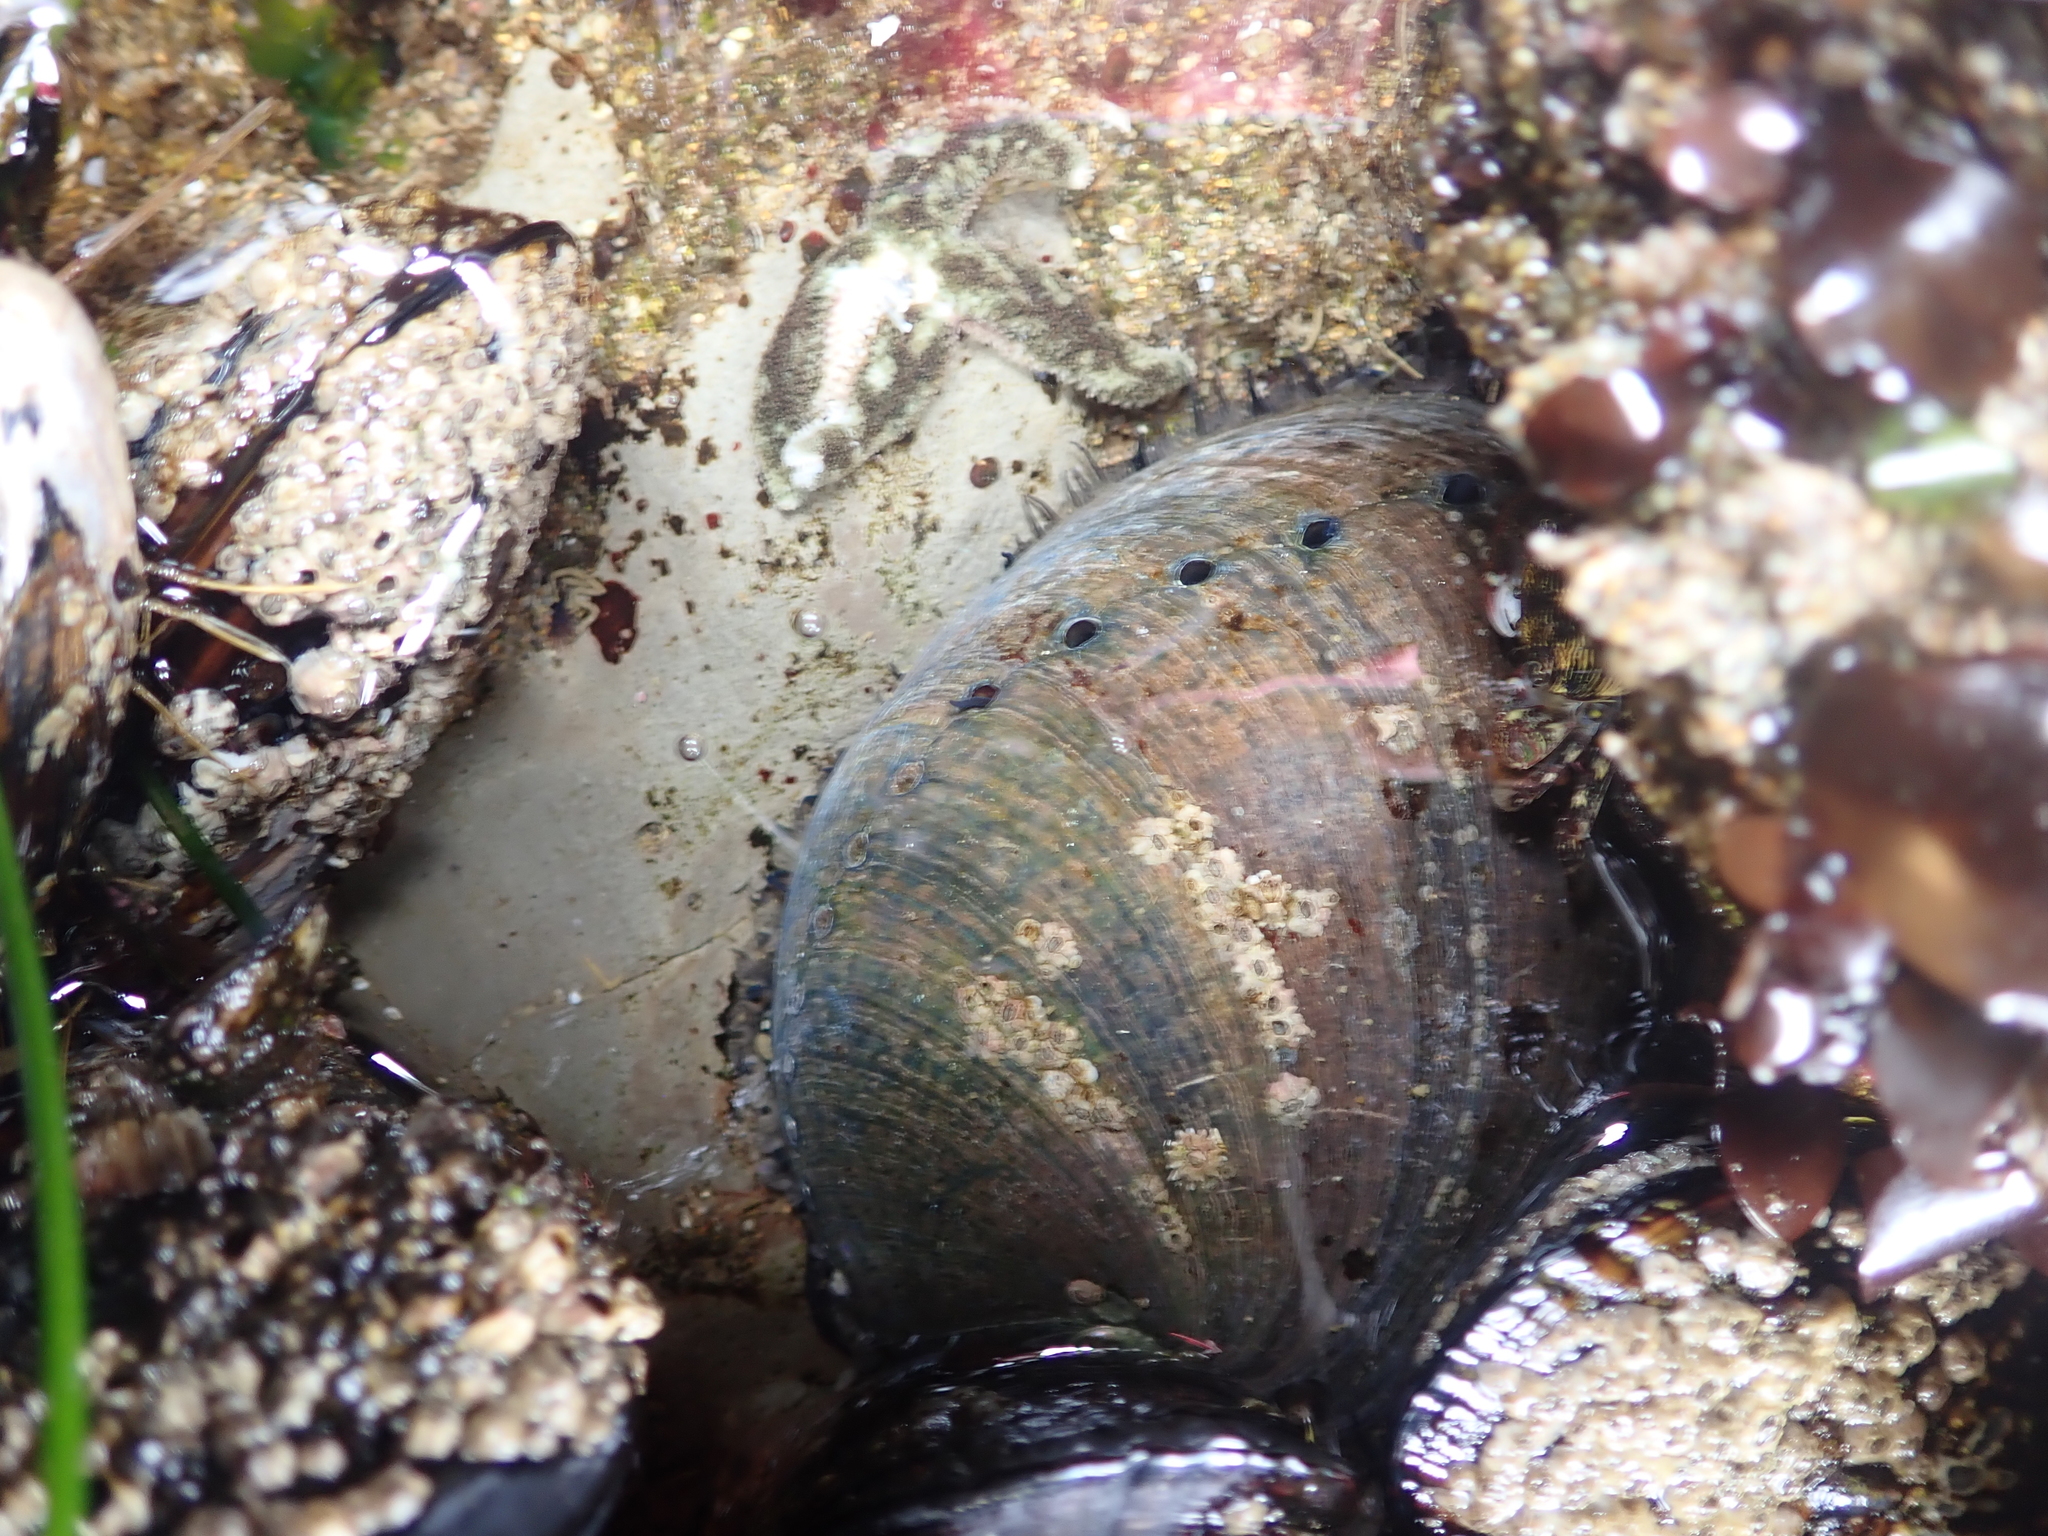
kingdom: Animalia
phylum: Mollusca
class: Gastropoda
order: Lepetellida
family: Haliotidae
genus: Haliotis
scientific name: Haliotis cracherodii
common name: Black abalone
